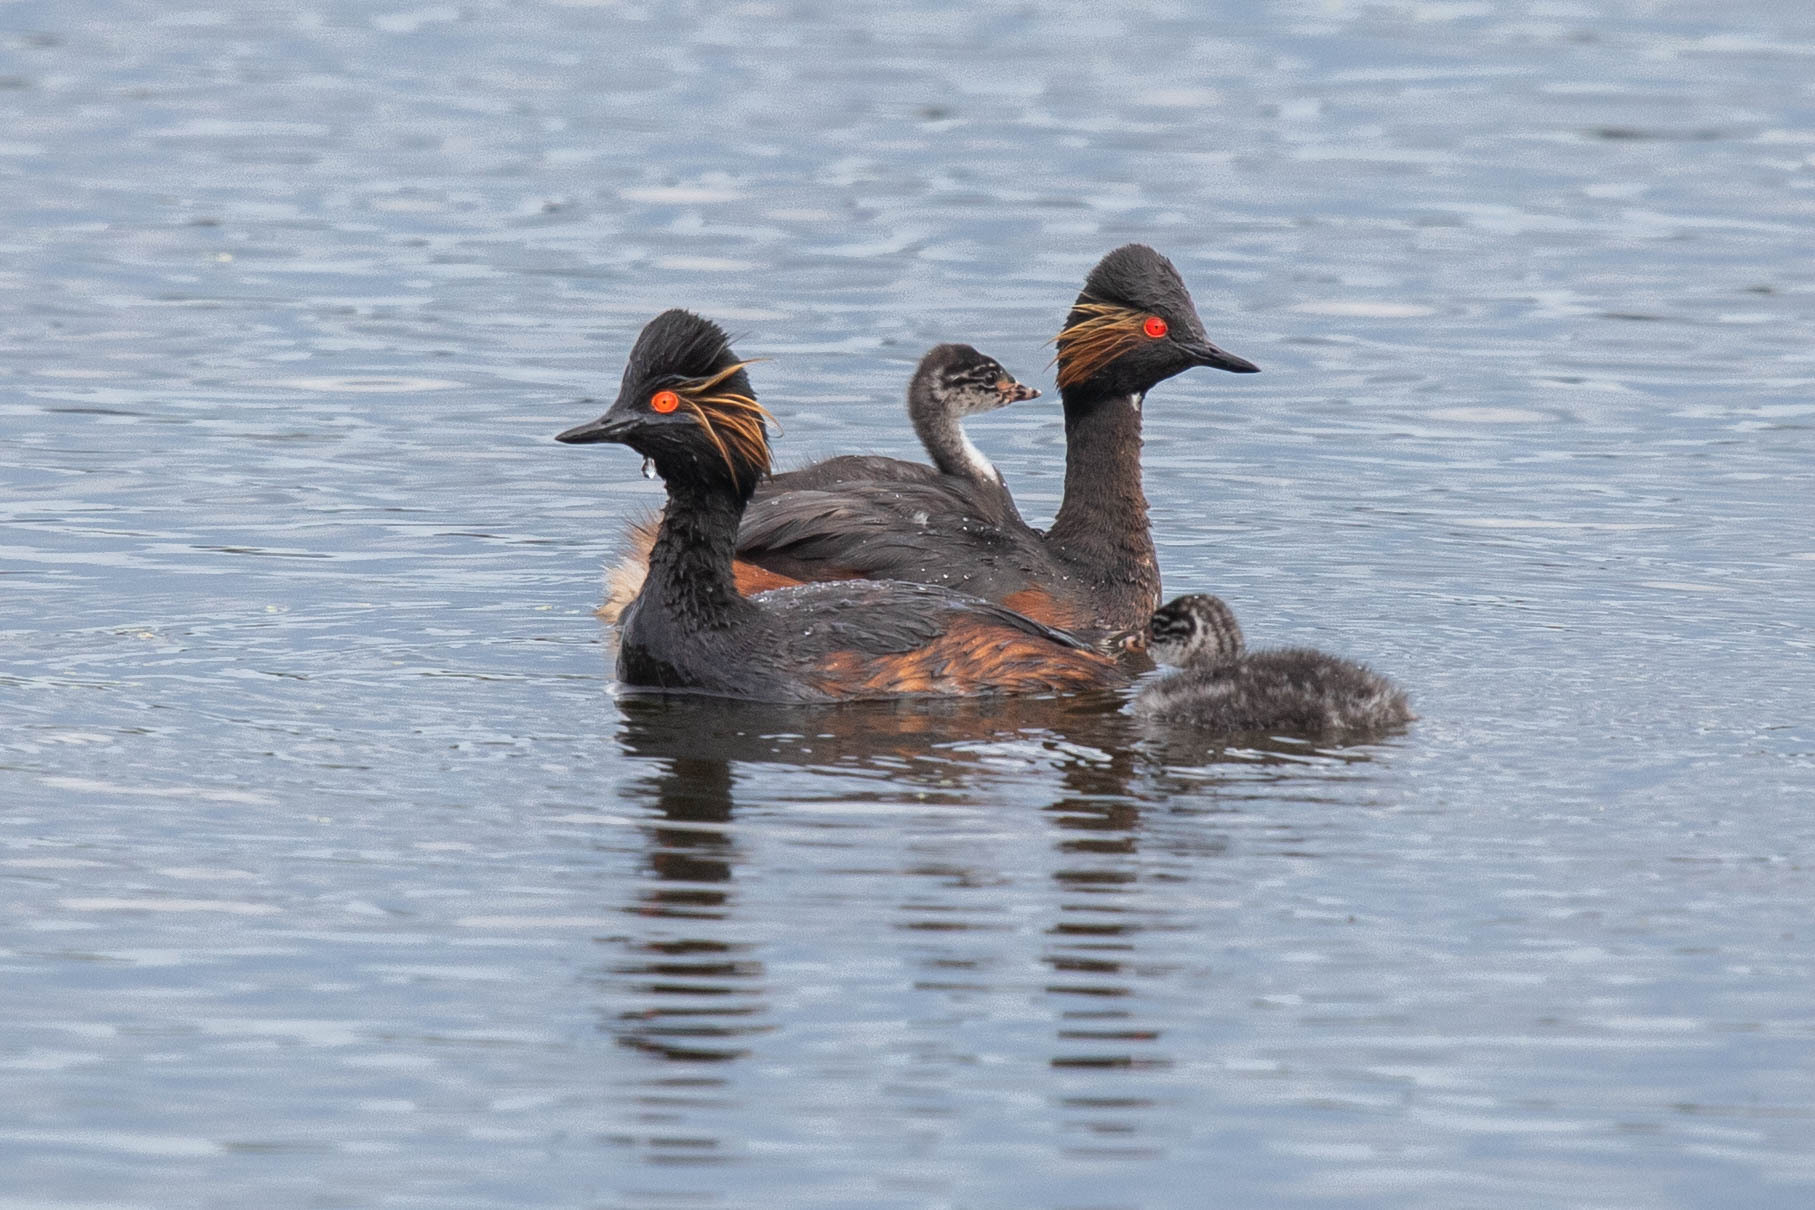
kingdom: Animalia
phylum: Chordata
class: Aves
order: Podicipediformes
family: Podicipedidae
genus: Podiceps
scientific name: Podiceps nigricollis
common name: Black-necked grebe
